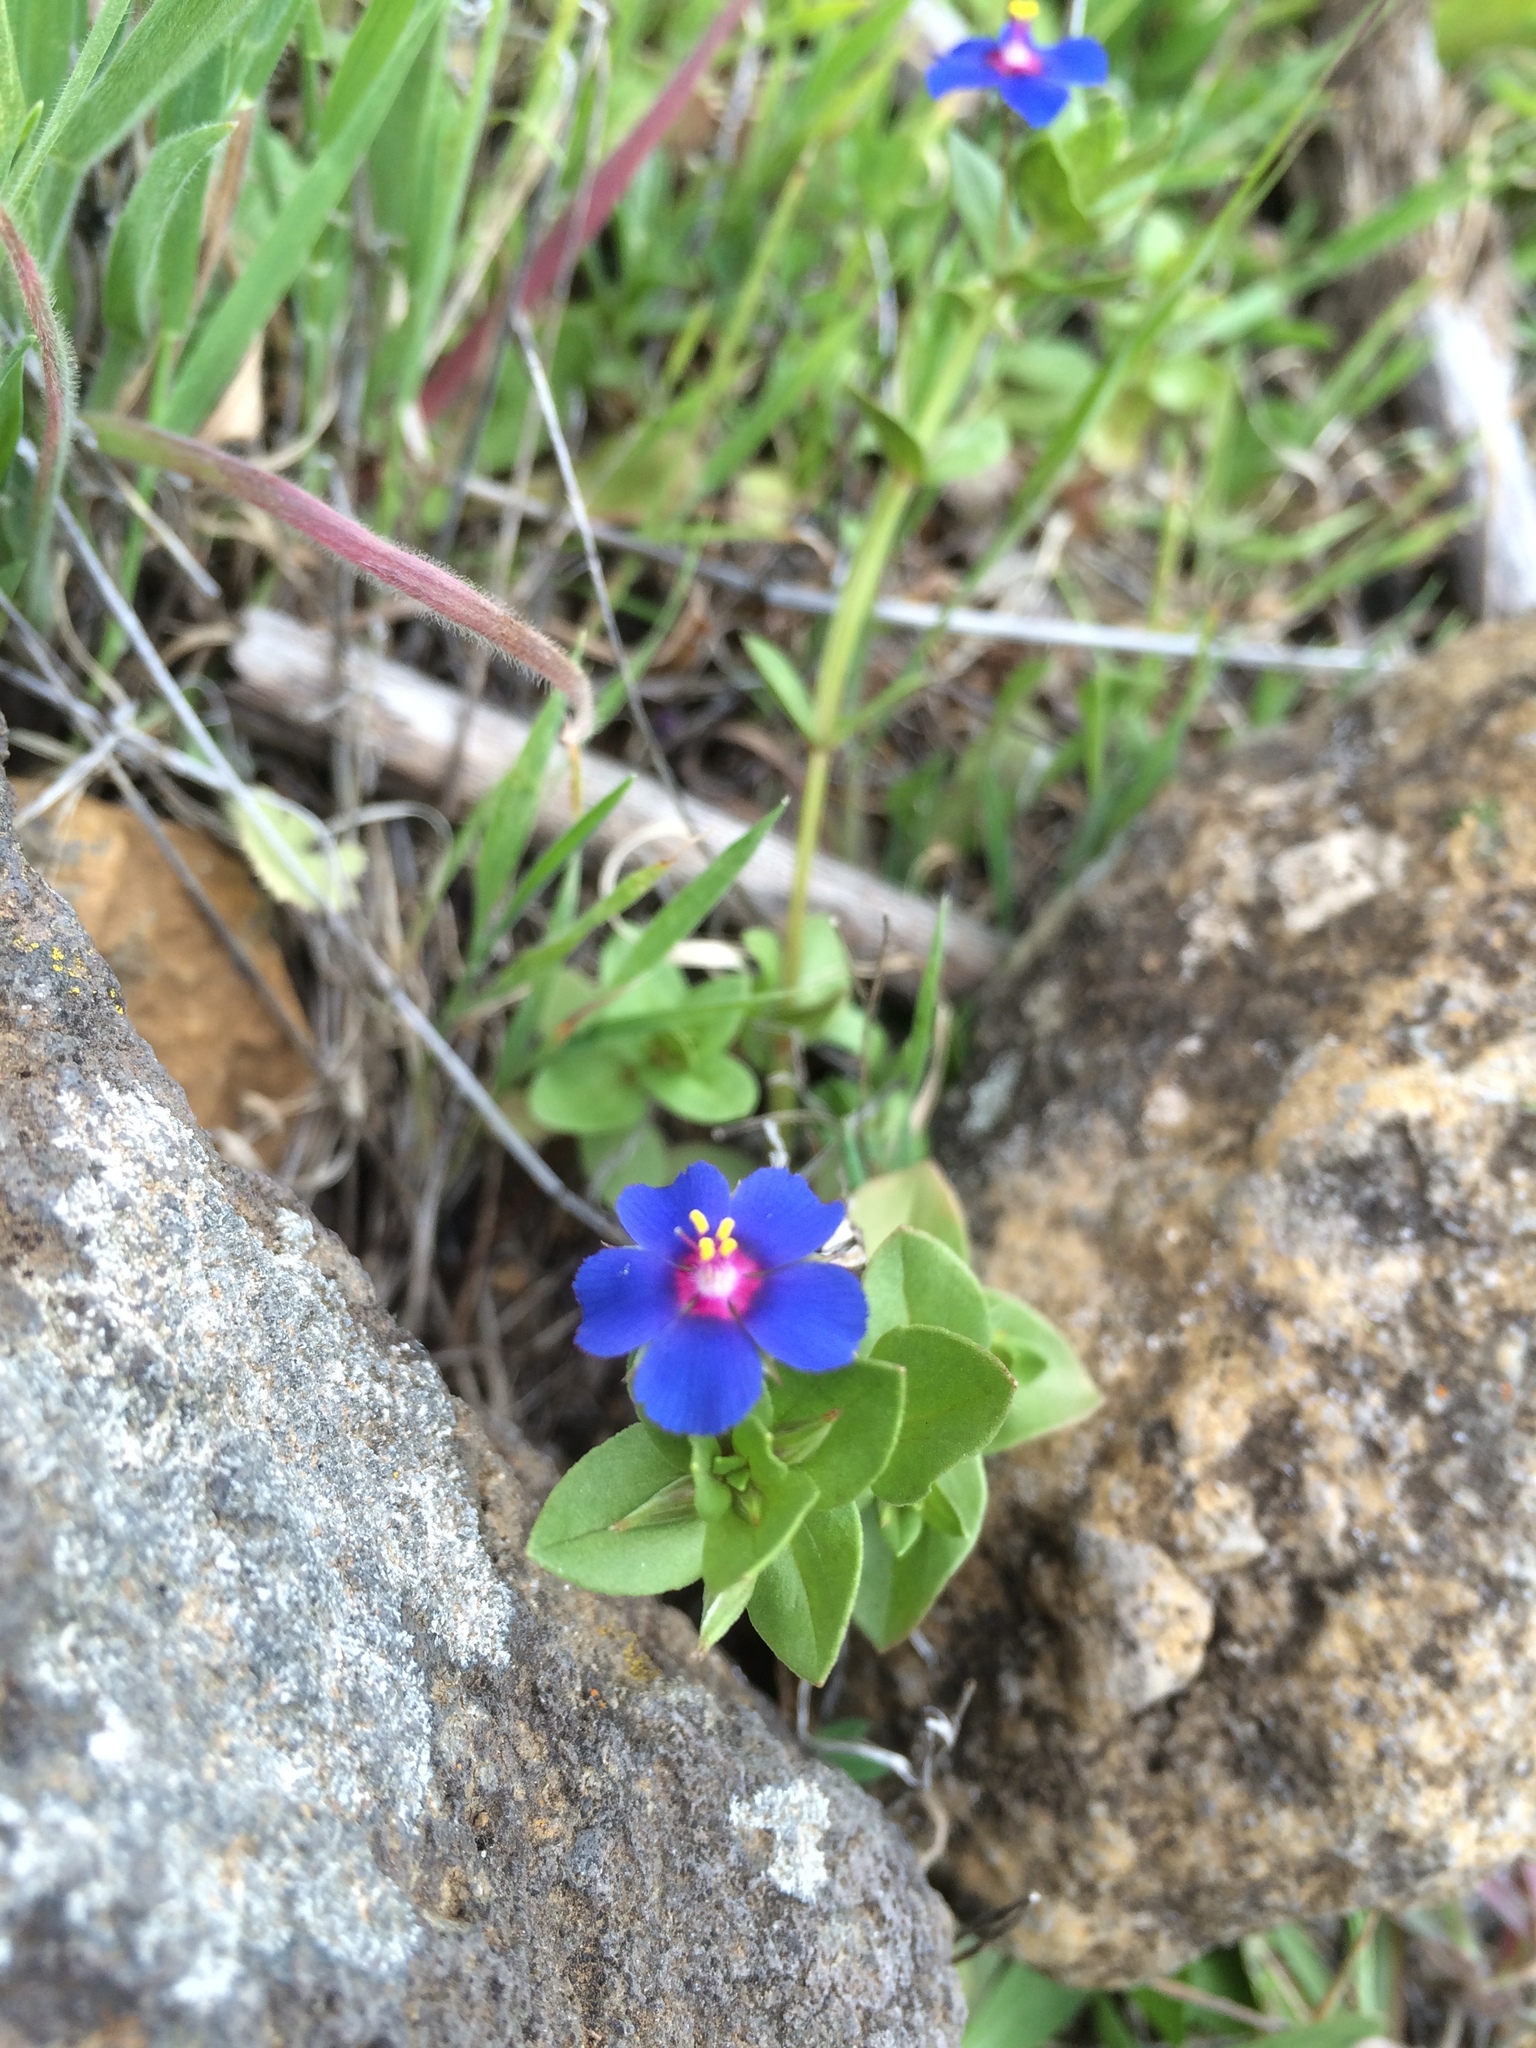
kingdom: Plantae
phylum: Tracheophyta
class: Magnoliopsida
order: Ericales
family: Primulaceae
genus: Lysimachia
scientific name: Lysimachia loeflingii
